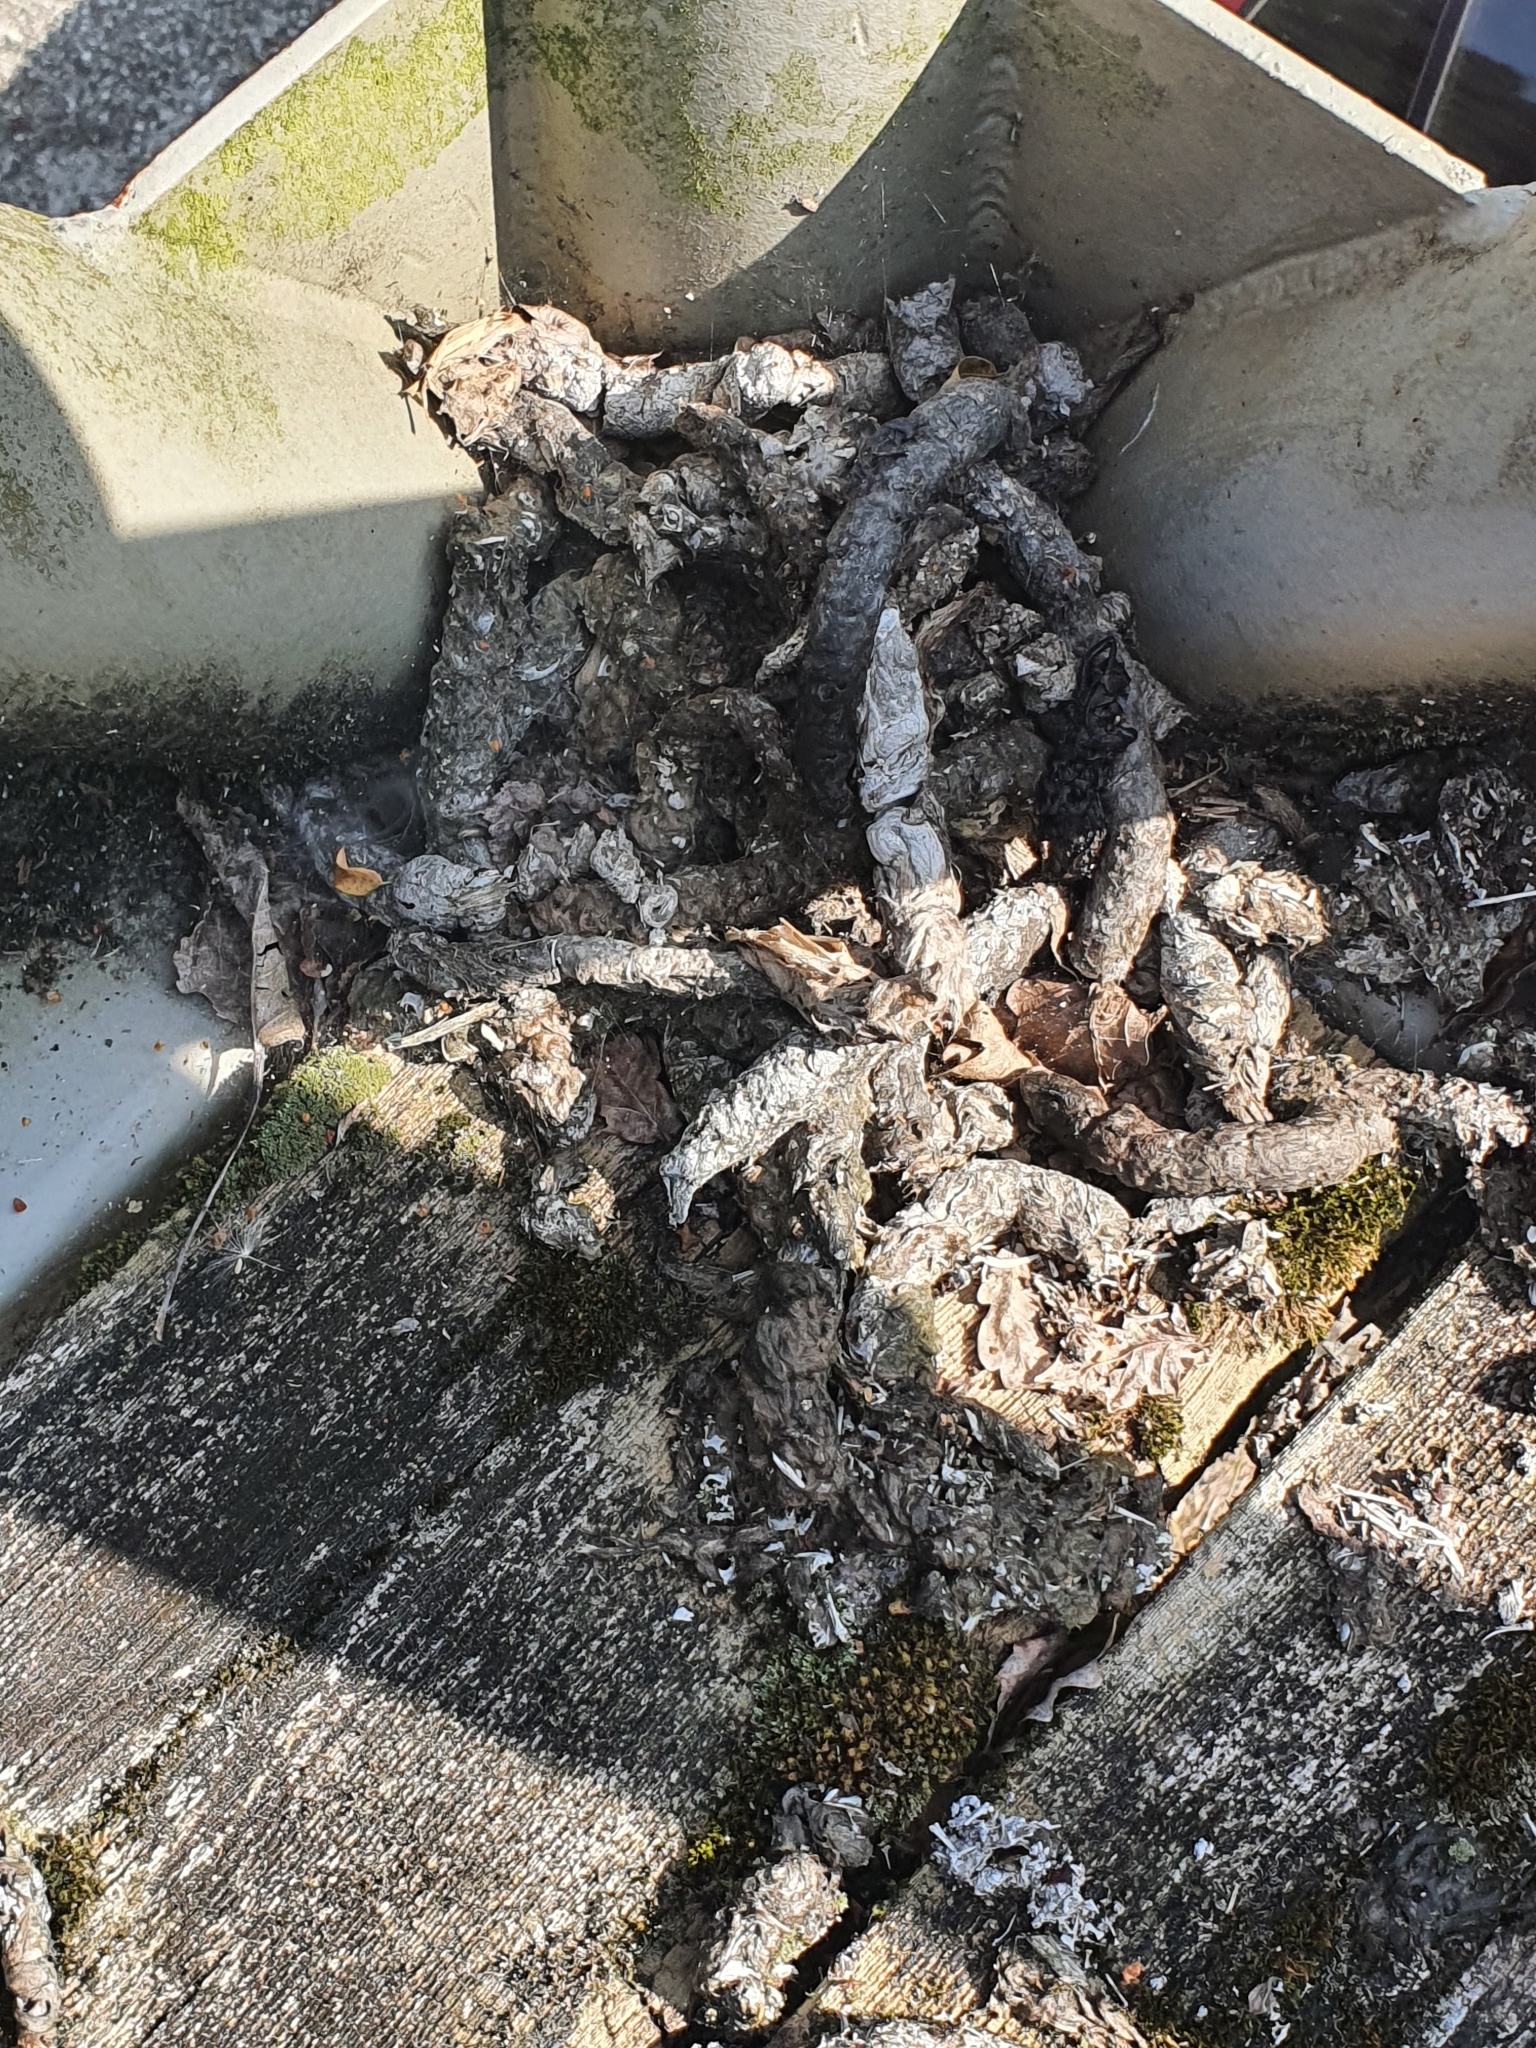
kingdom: Animalia
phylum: Chordata
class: Mammalia
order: Carnivora
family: Viverridae
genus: Genetta
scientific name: Genetta genetta
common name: Common genet
